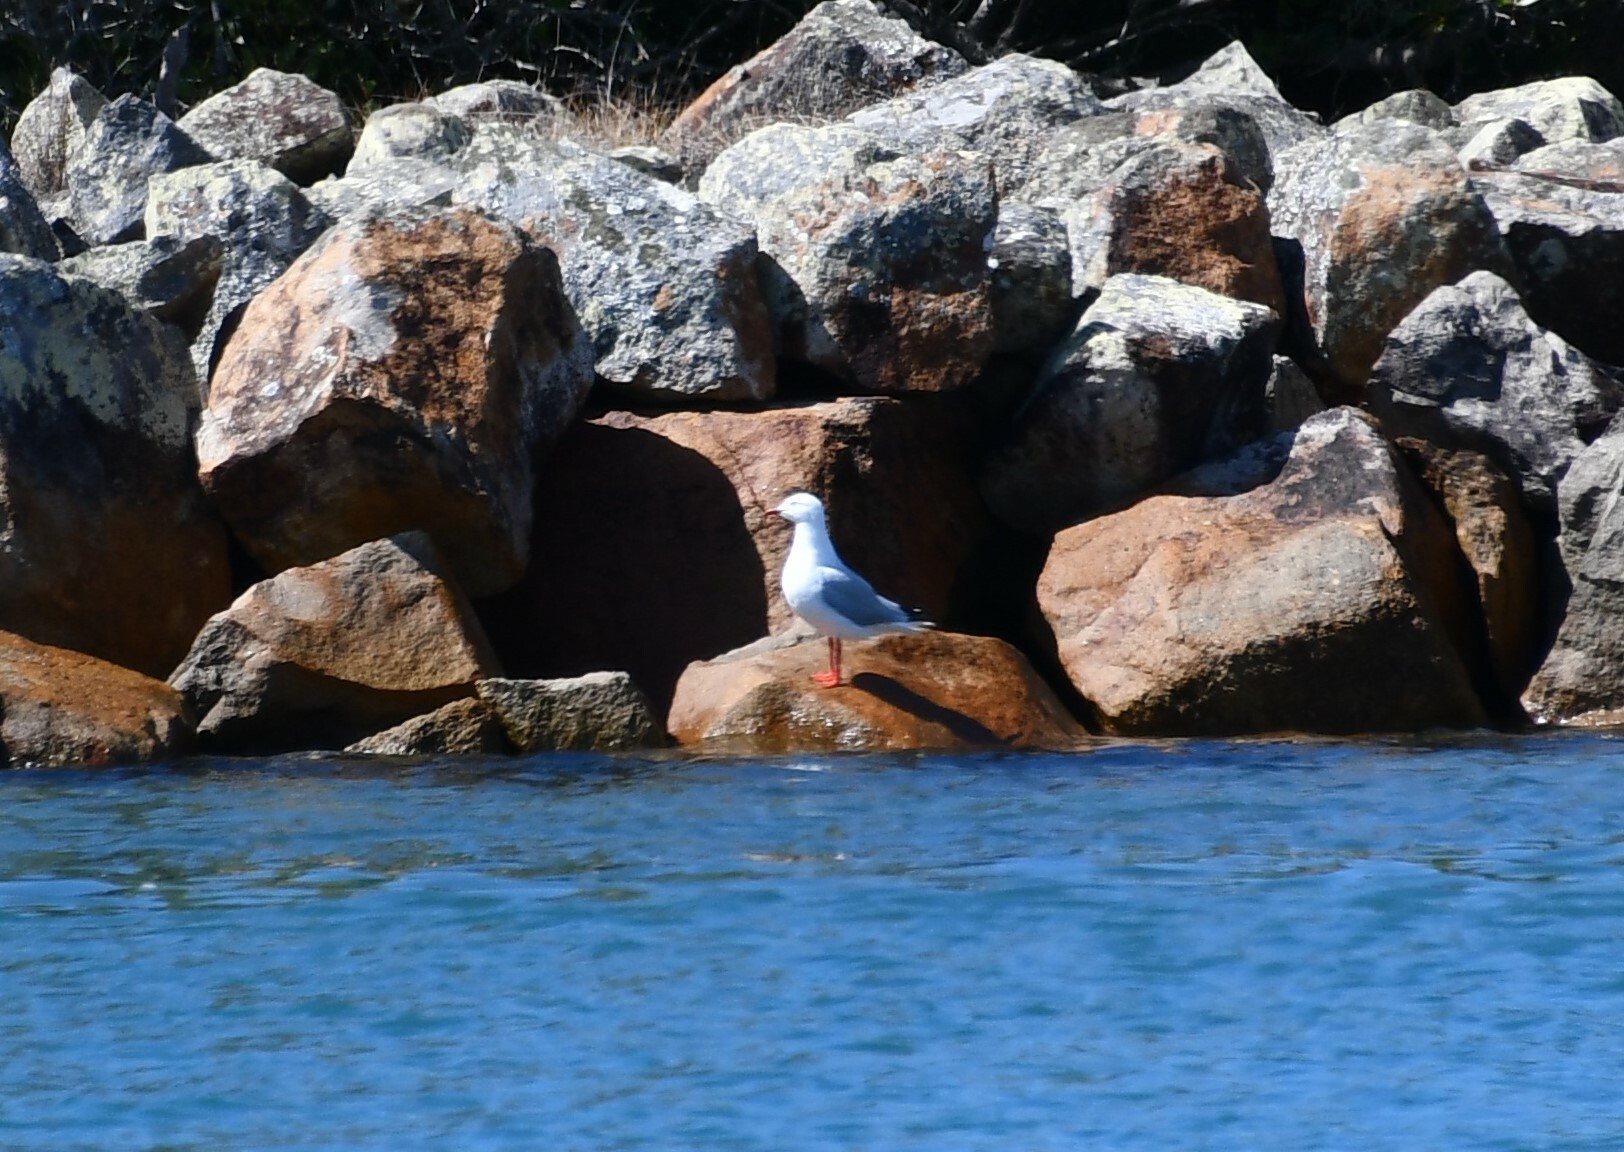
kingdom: Animalia
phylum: Chordata
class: Aves
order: Charadriiformes
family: Laridae
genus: Chroicocephalus
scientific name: Chroicocephalus novaehollandiae
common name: Silver gull
